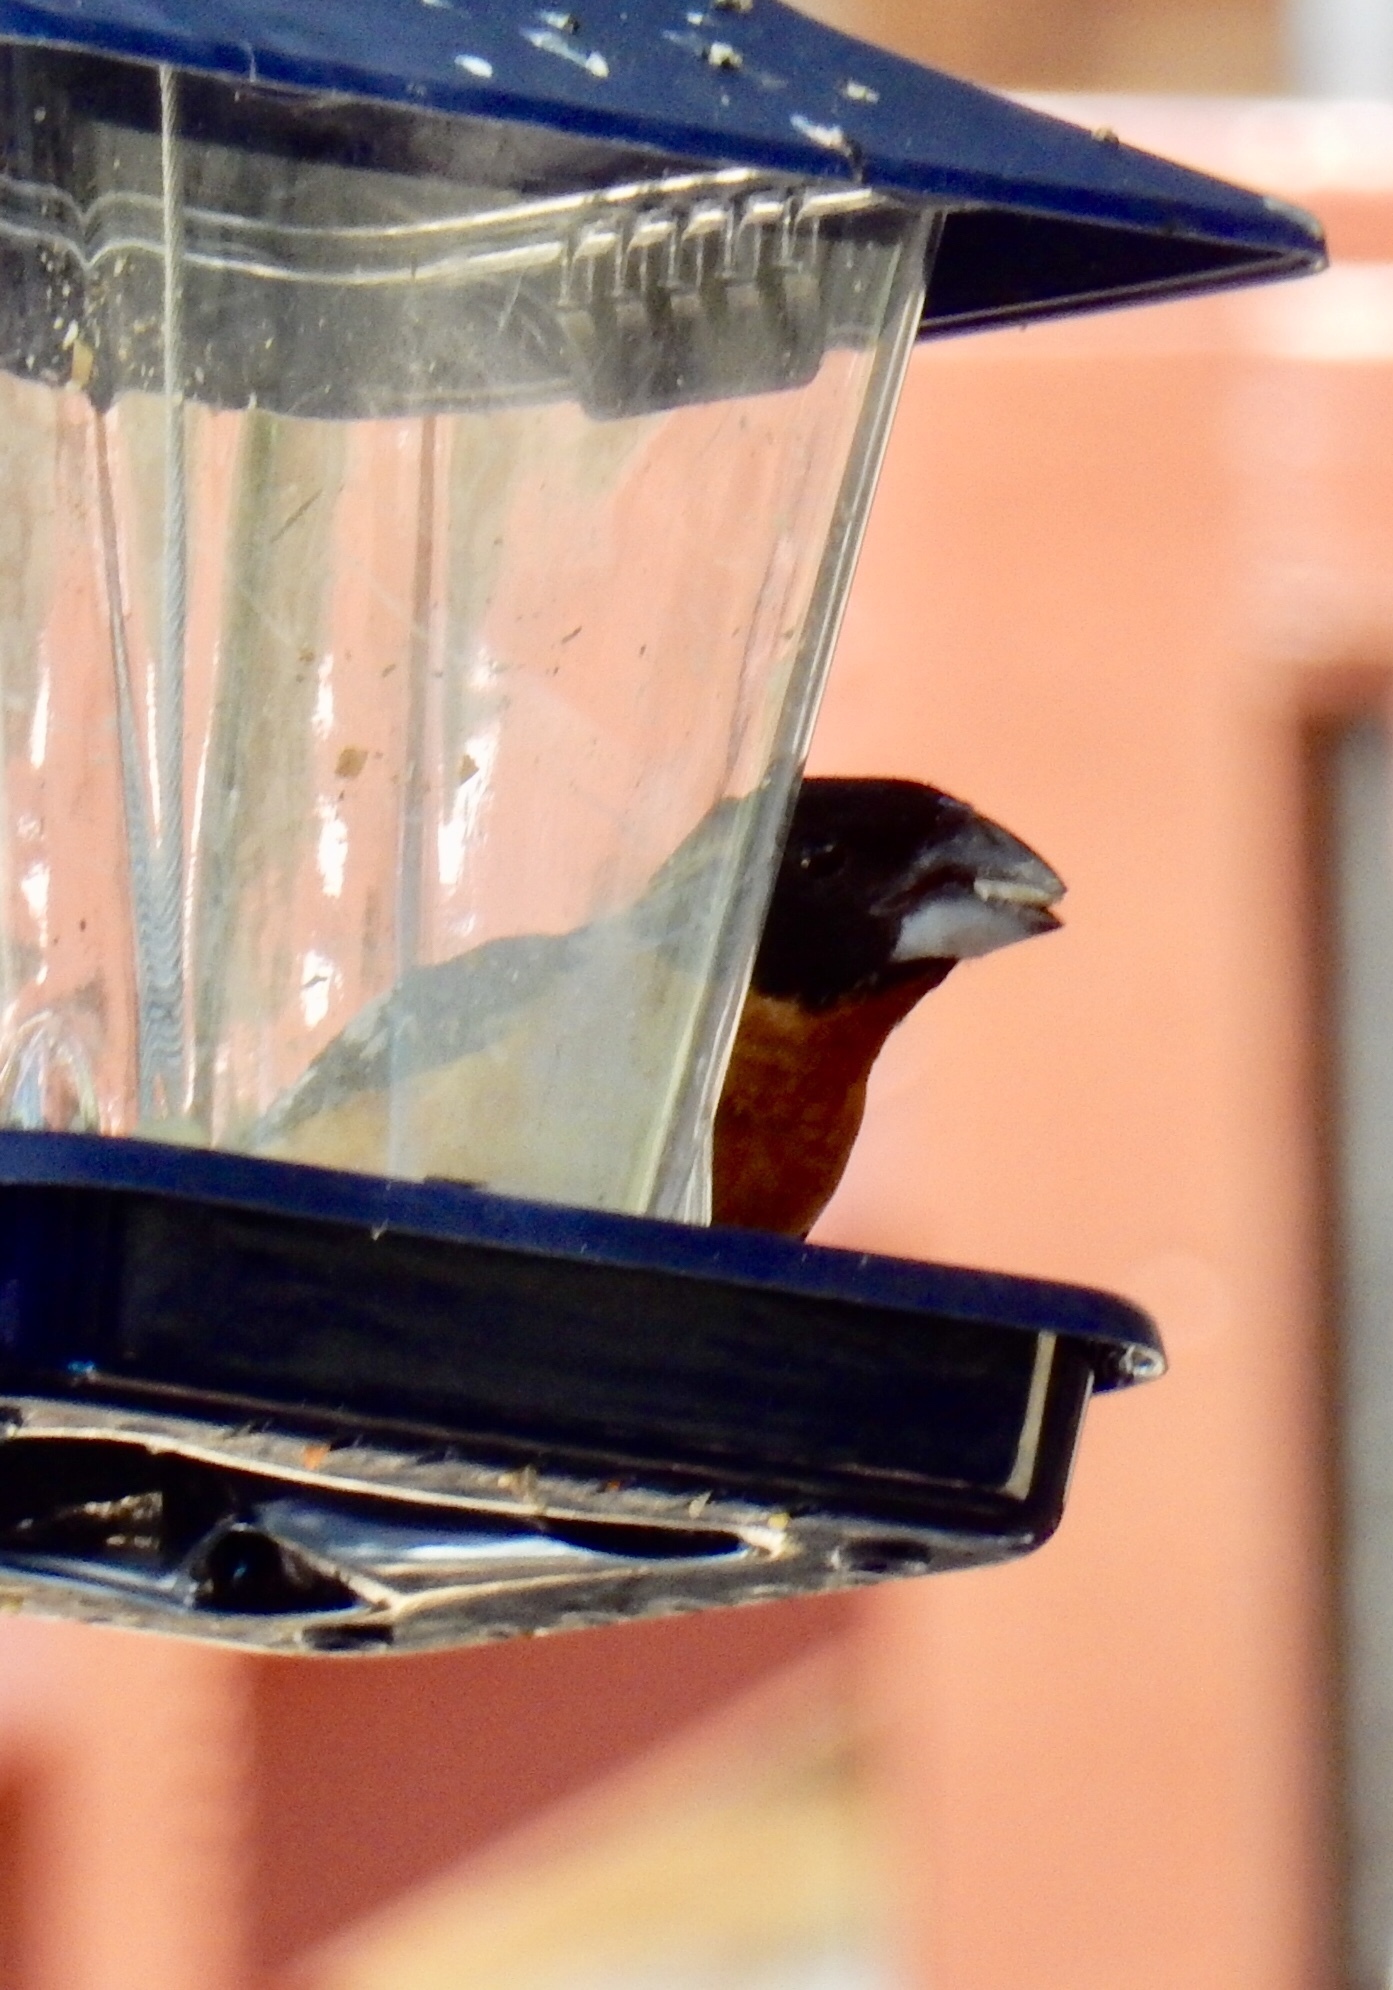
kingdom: Animalia
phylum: Chordata
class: Aves
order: Passeriformes
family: Cardinalidae
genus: Pheucticus
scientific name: Pheucticus melanocephalus
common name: Black-headed grosbeak
